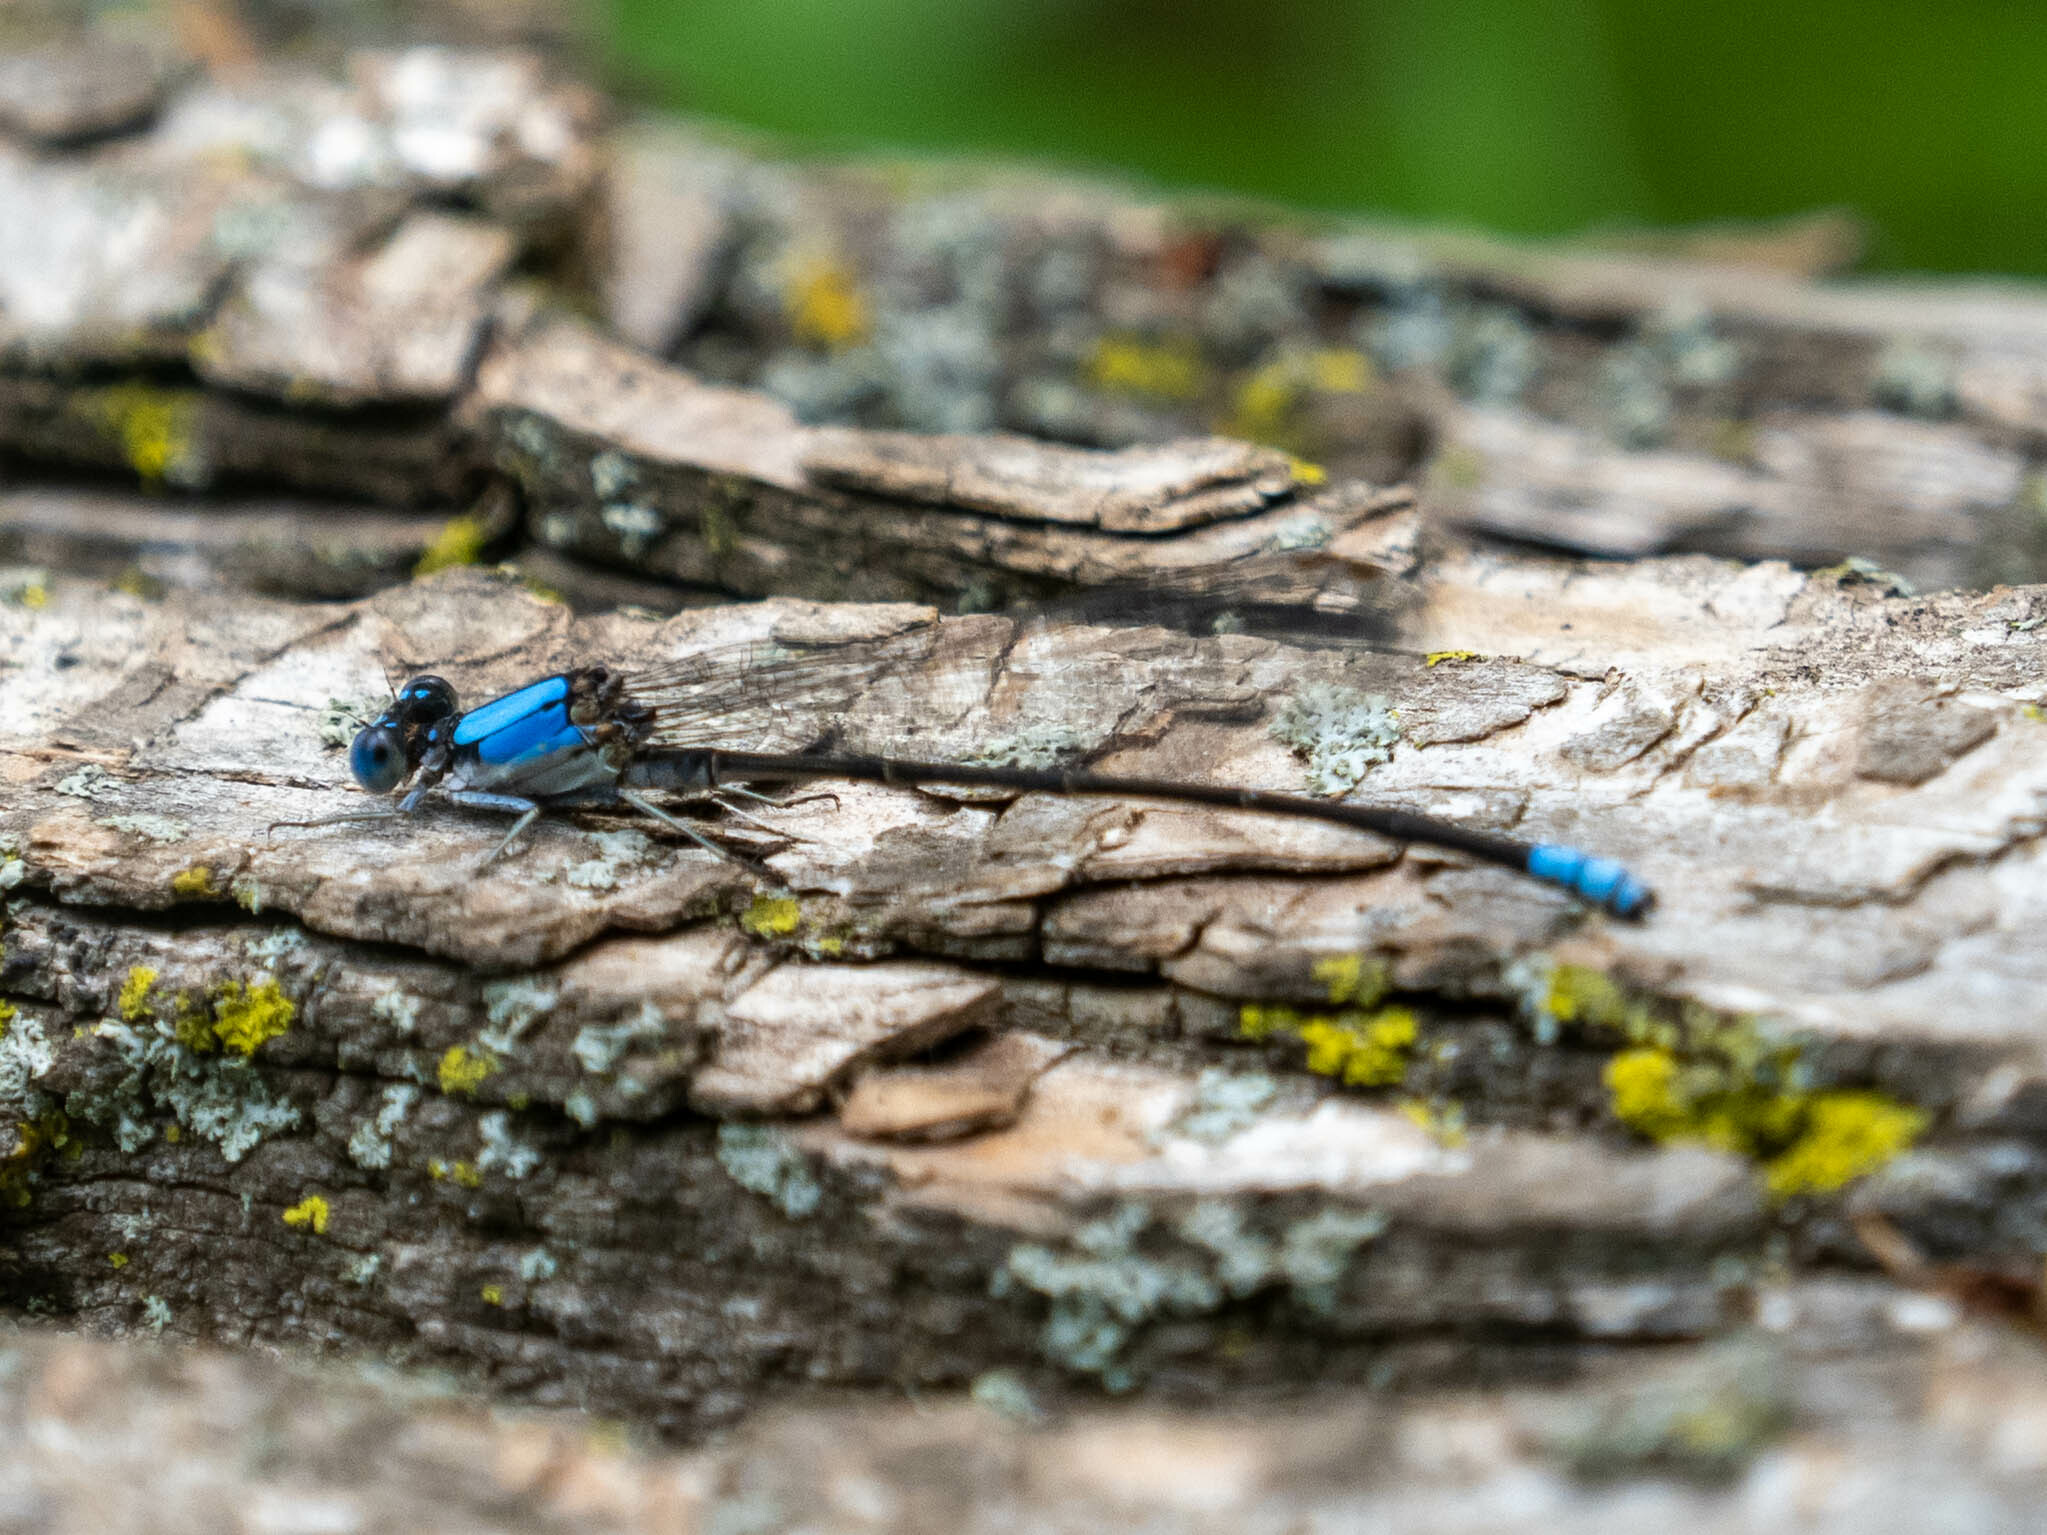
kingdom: Animalia
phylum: Arthropoda
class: Insecta
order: Odonata
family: Coenagrionidae
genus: Argia
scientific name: Argia apicalis
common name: Blue-fronted dancer
